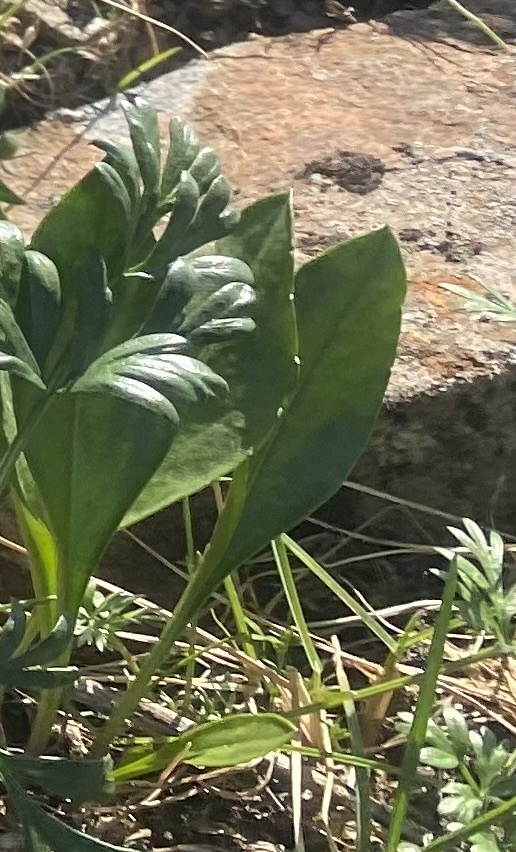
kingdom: Plantae
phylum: Tracheophyta
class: Magnoliopsida
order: Lamiales
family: Plantaginaceae
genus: Lagotis
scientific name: Lagotis glauca
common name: Glaucous weaselsnout
